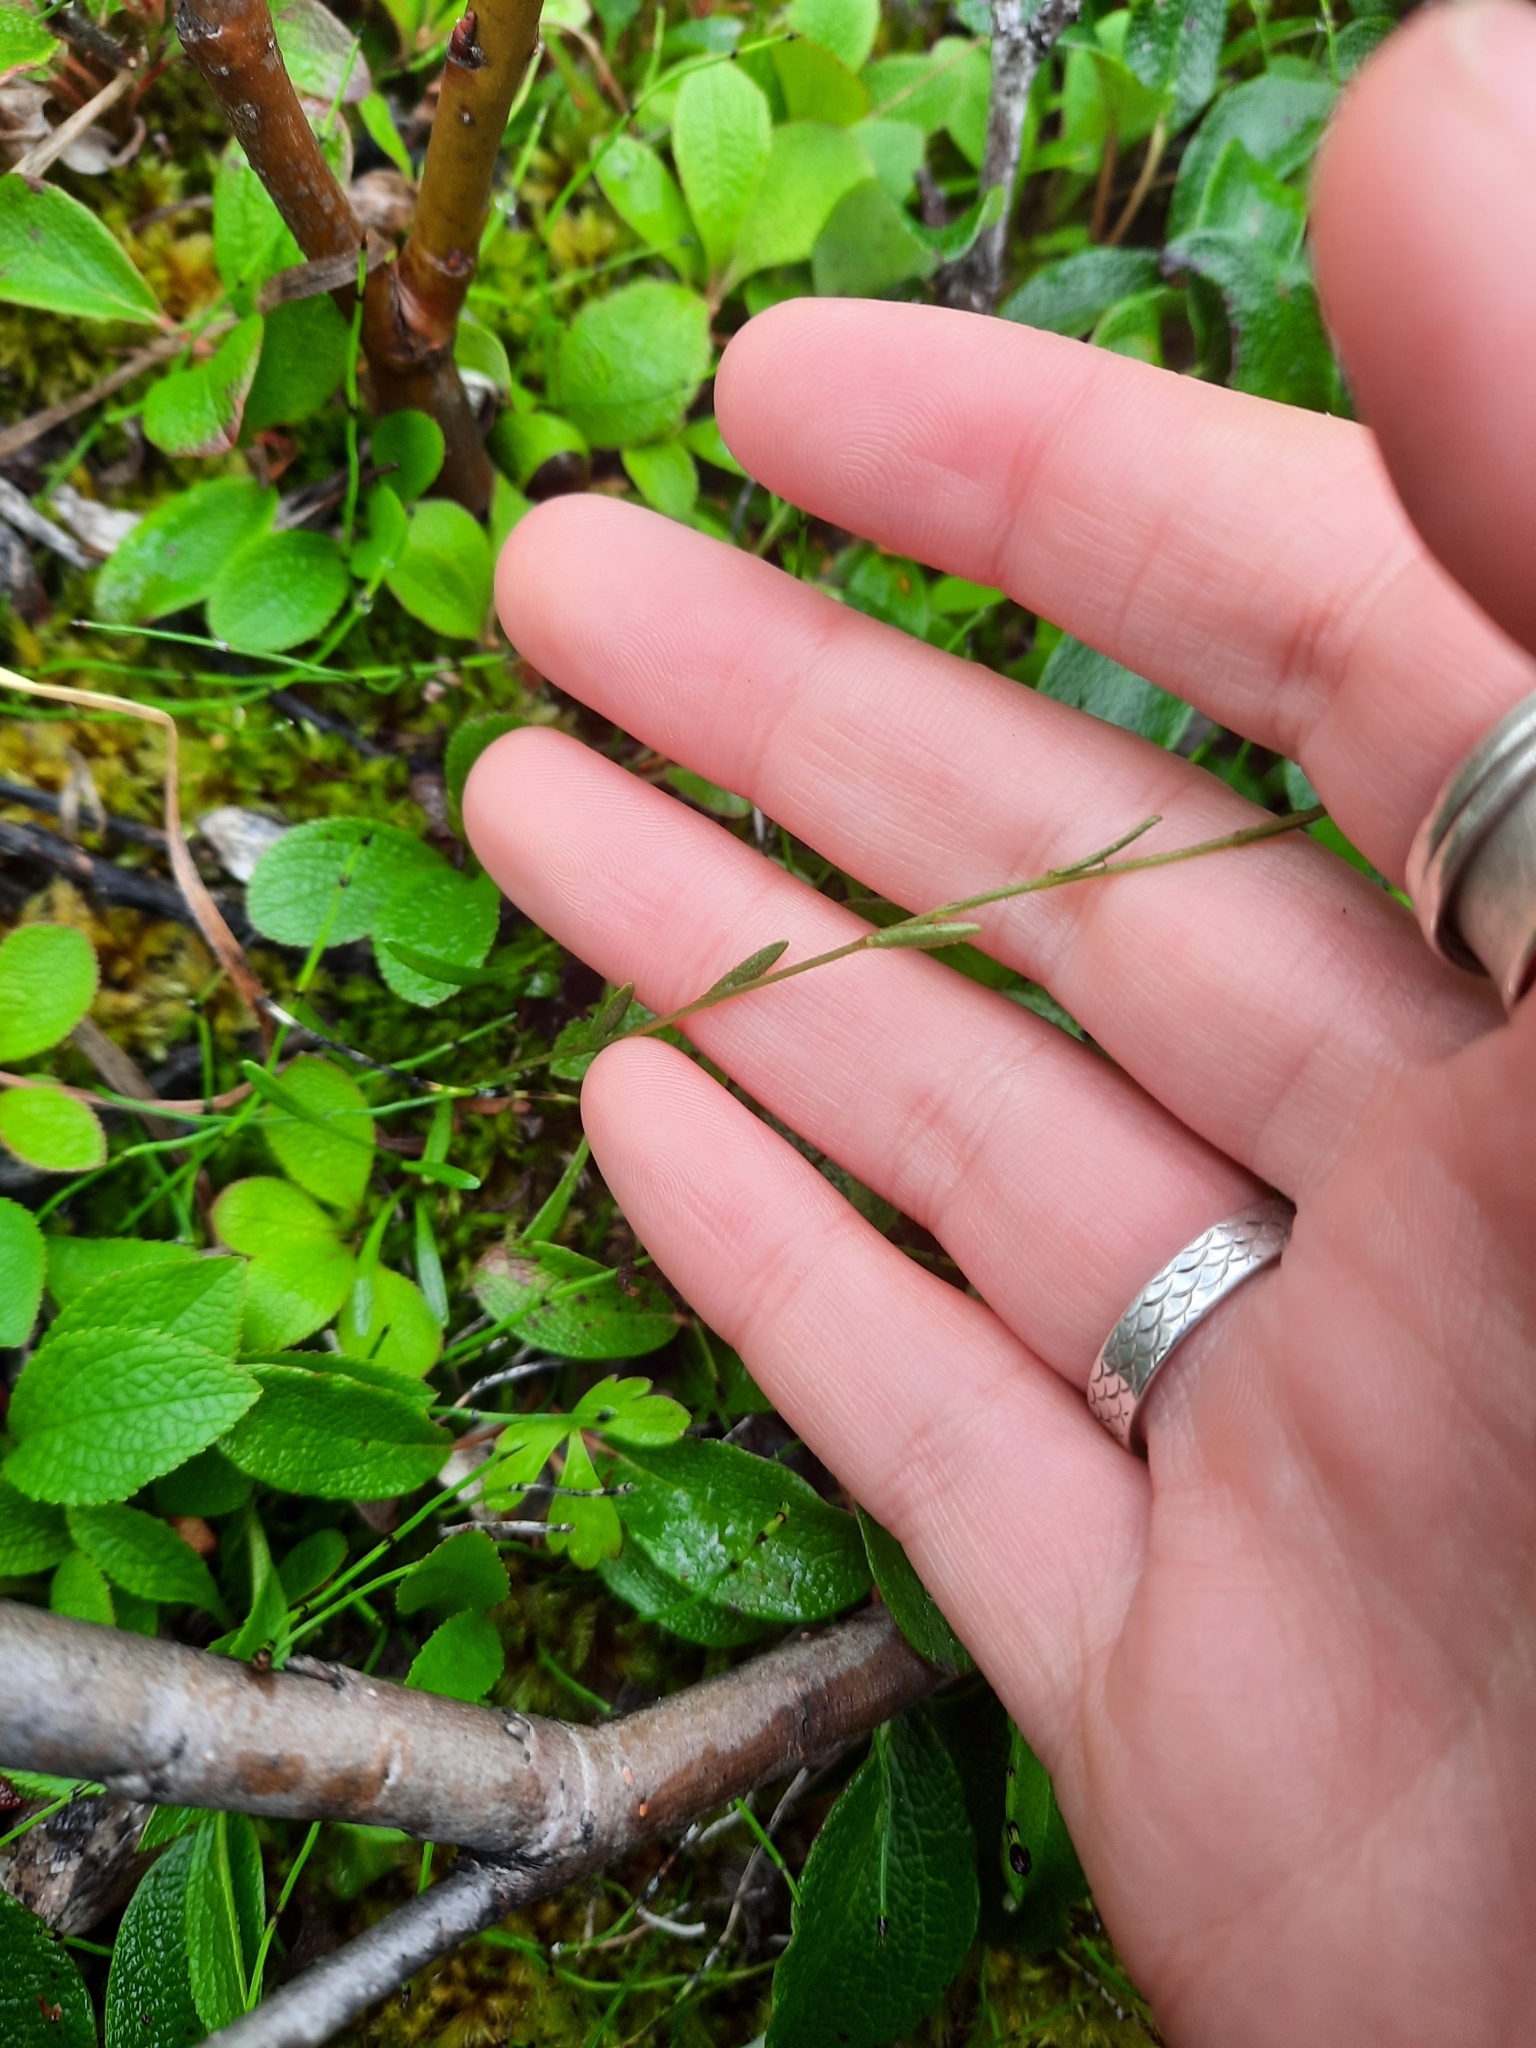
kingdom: Plantae
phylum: Tracheophyta
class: Magnoliopsida
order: Saxifragales
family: Saxifragaceae
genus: Saxifraga
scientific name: Saxifraga hirculus
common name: Yellow marsh saxifrage
